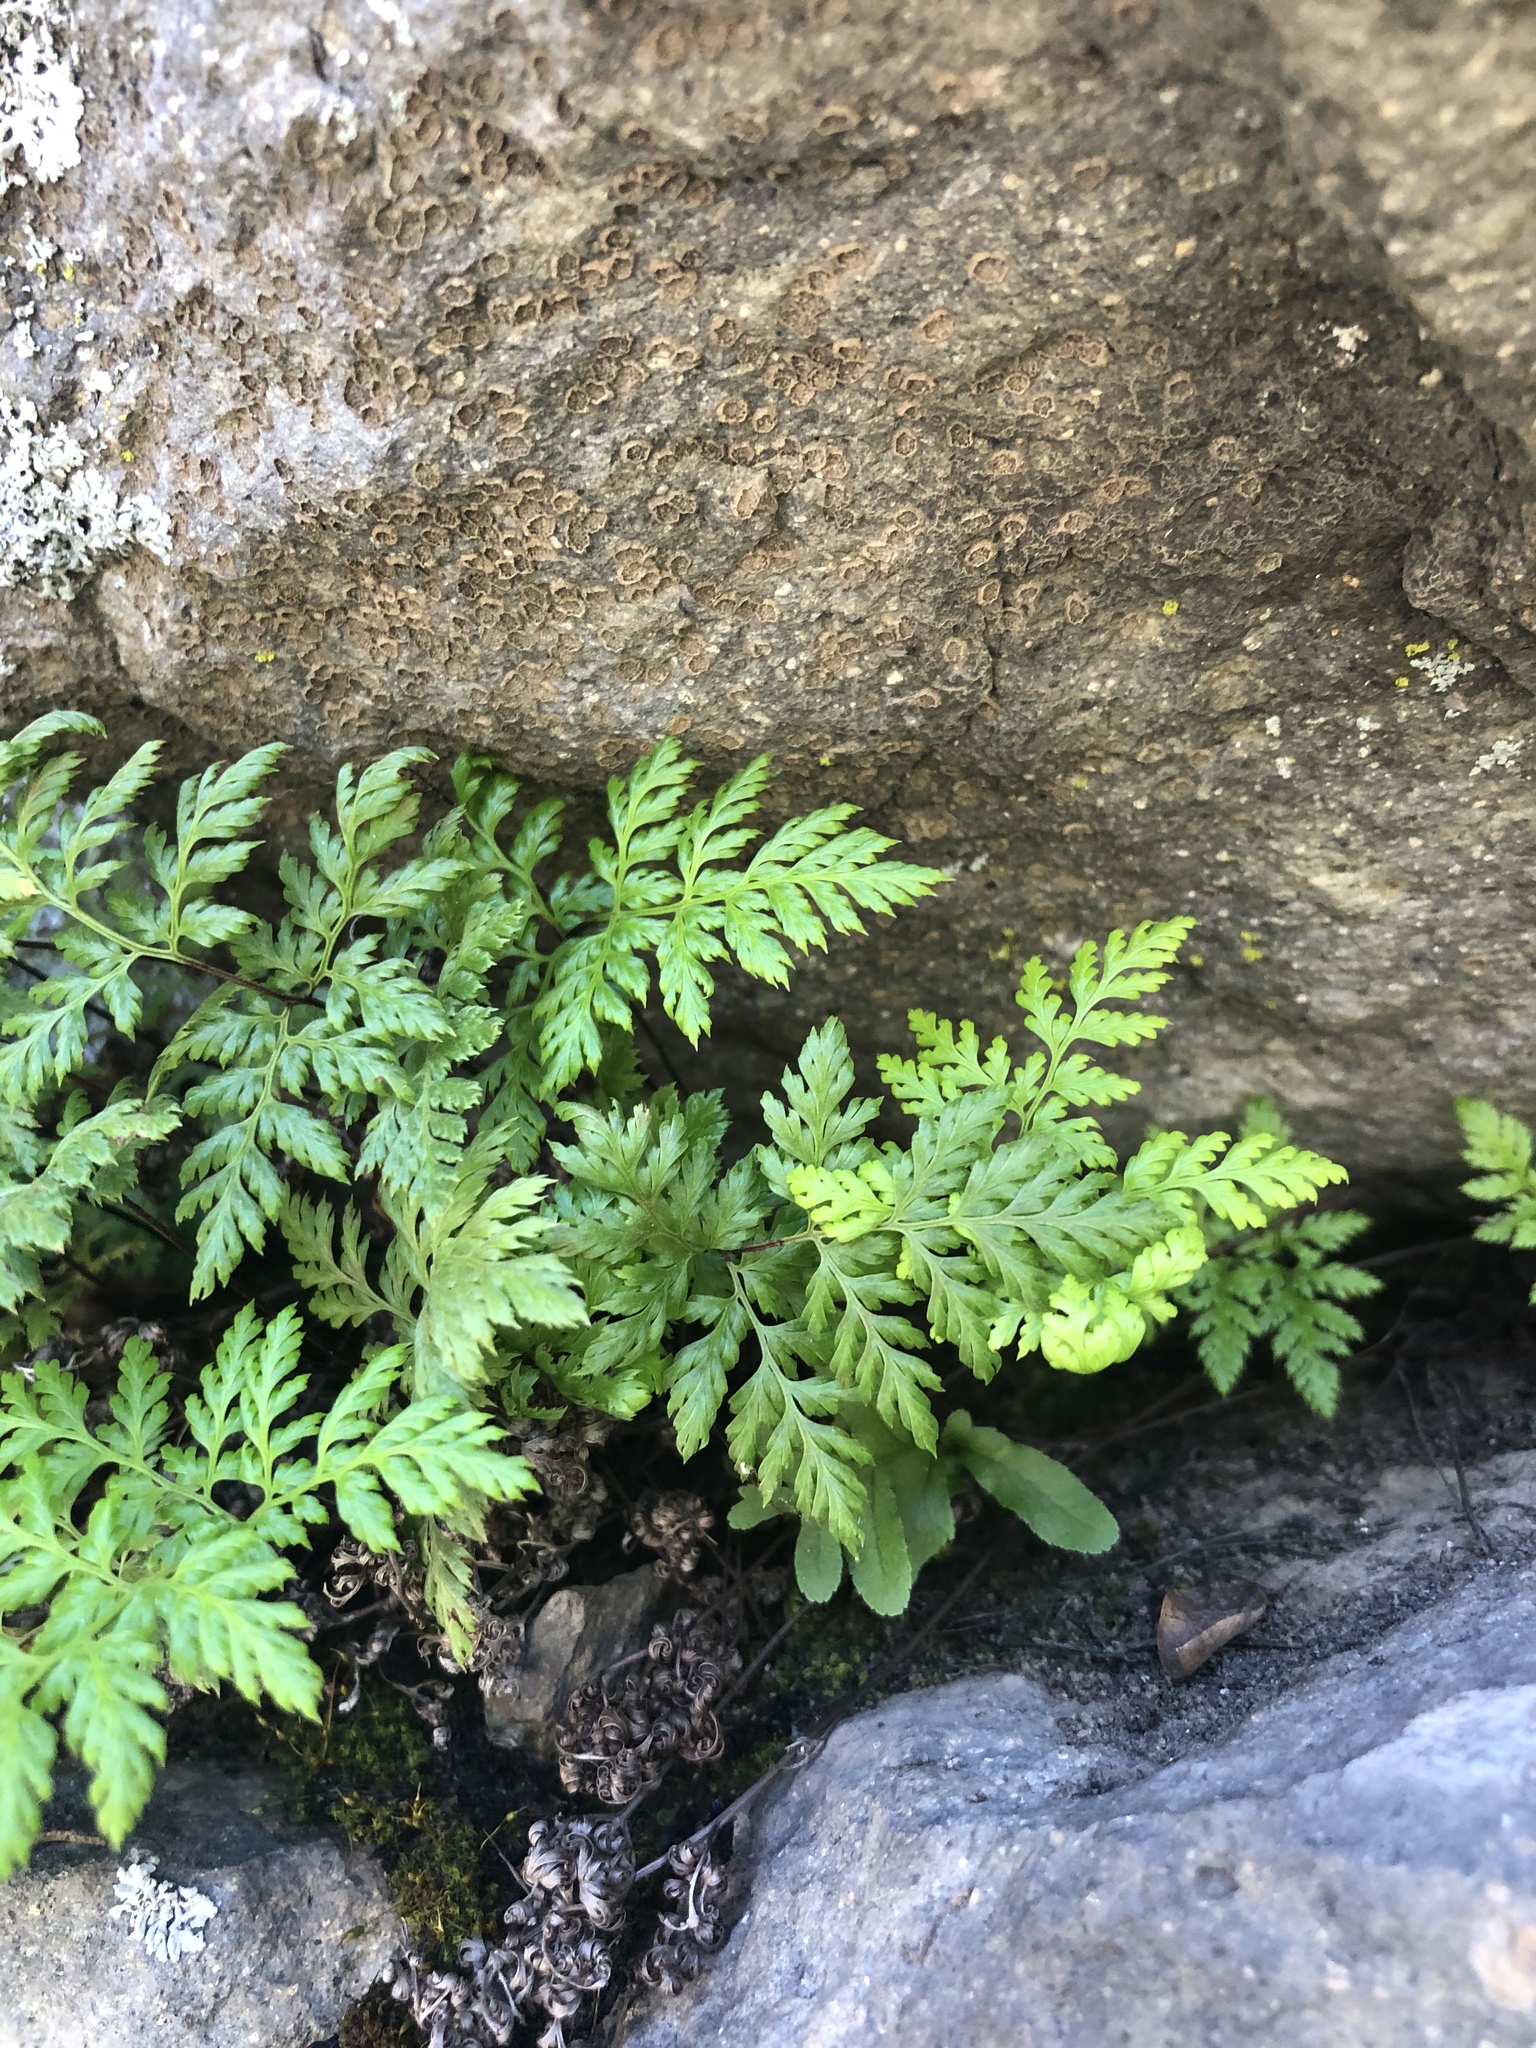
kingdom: Plantae
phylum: Tracheophyta
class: Polypodiopsida
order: Polypodiales
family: Pteridaceae
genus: Aspidotis
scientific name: Aspidotis californica
